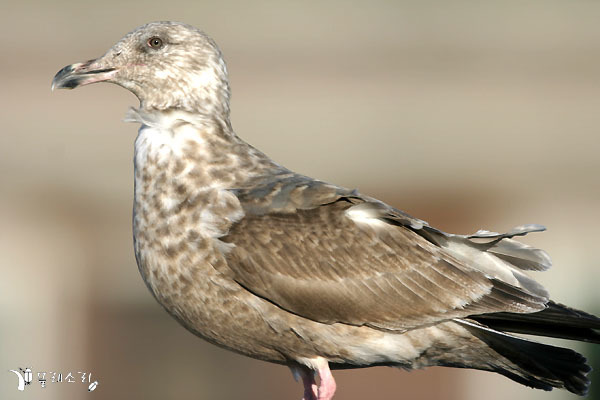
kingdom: Animalia
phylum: Chordata
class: Aves
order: Charadriiformes
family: Laridae
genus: Larus
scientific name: Larus schistisagus
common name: Slaty-backed gull
